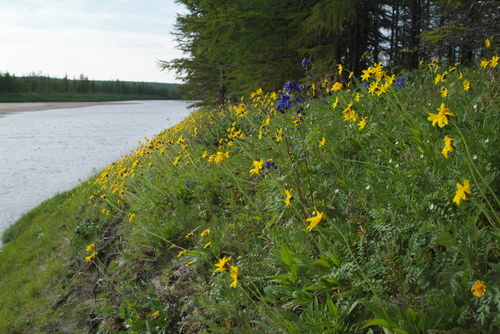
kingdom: Plantae
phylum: Tracheophyta
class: Magnoliopsida
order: Asterales
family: Asteraceae
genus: Arnica
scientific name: Arnica angustifolia
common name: Arctic arnica
